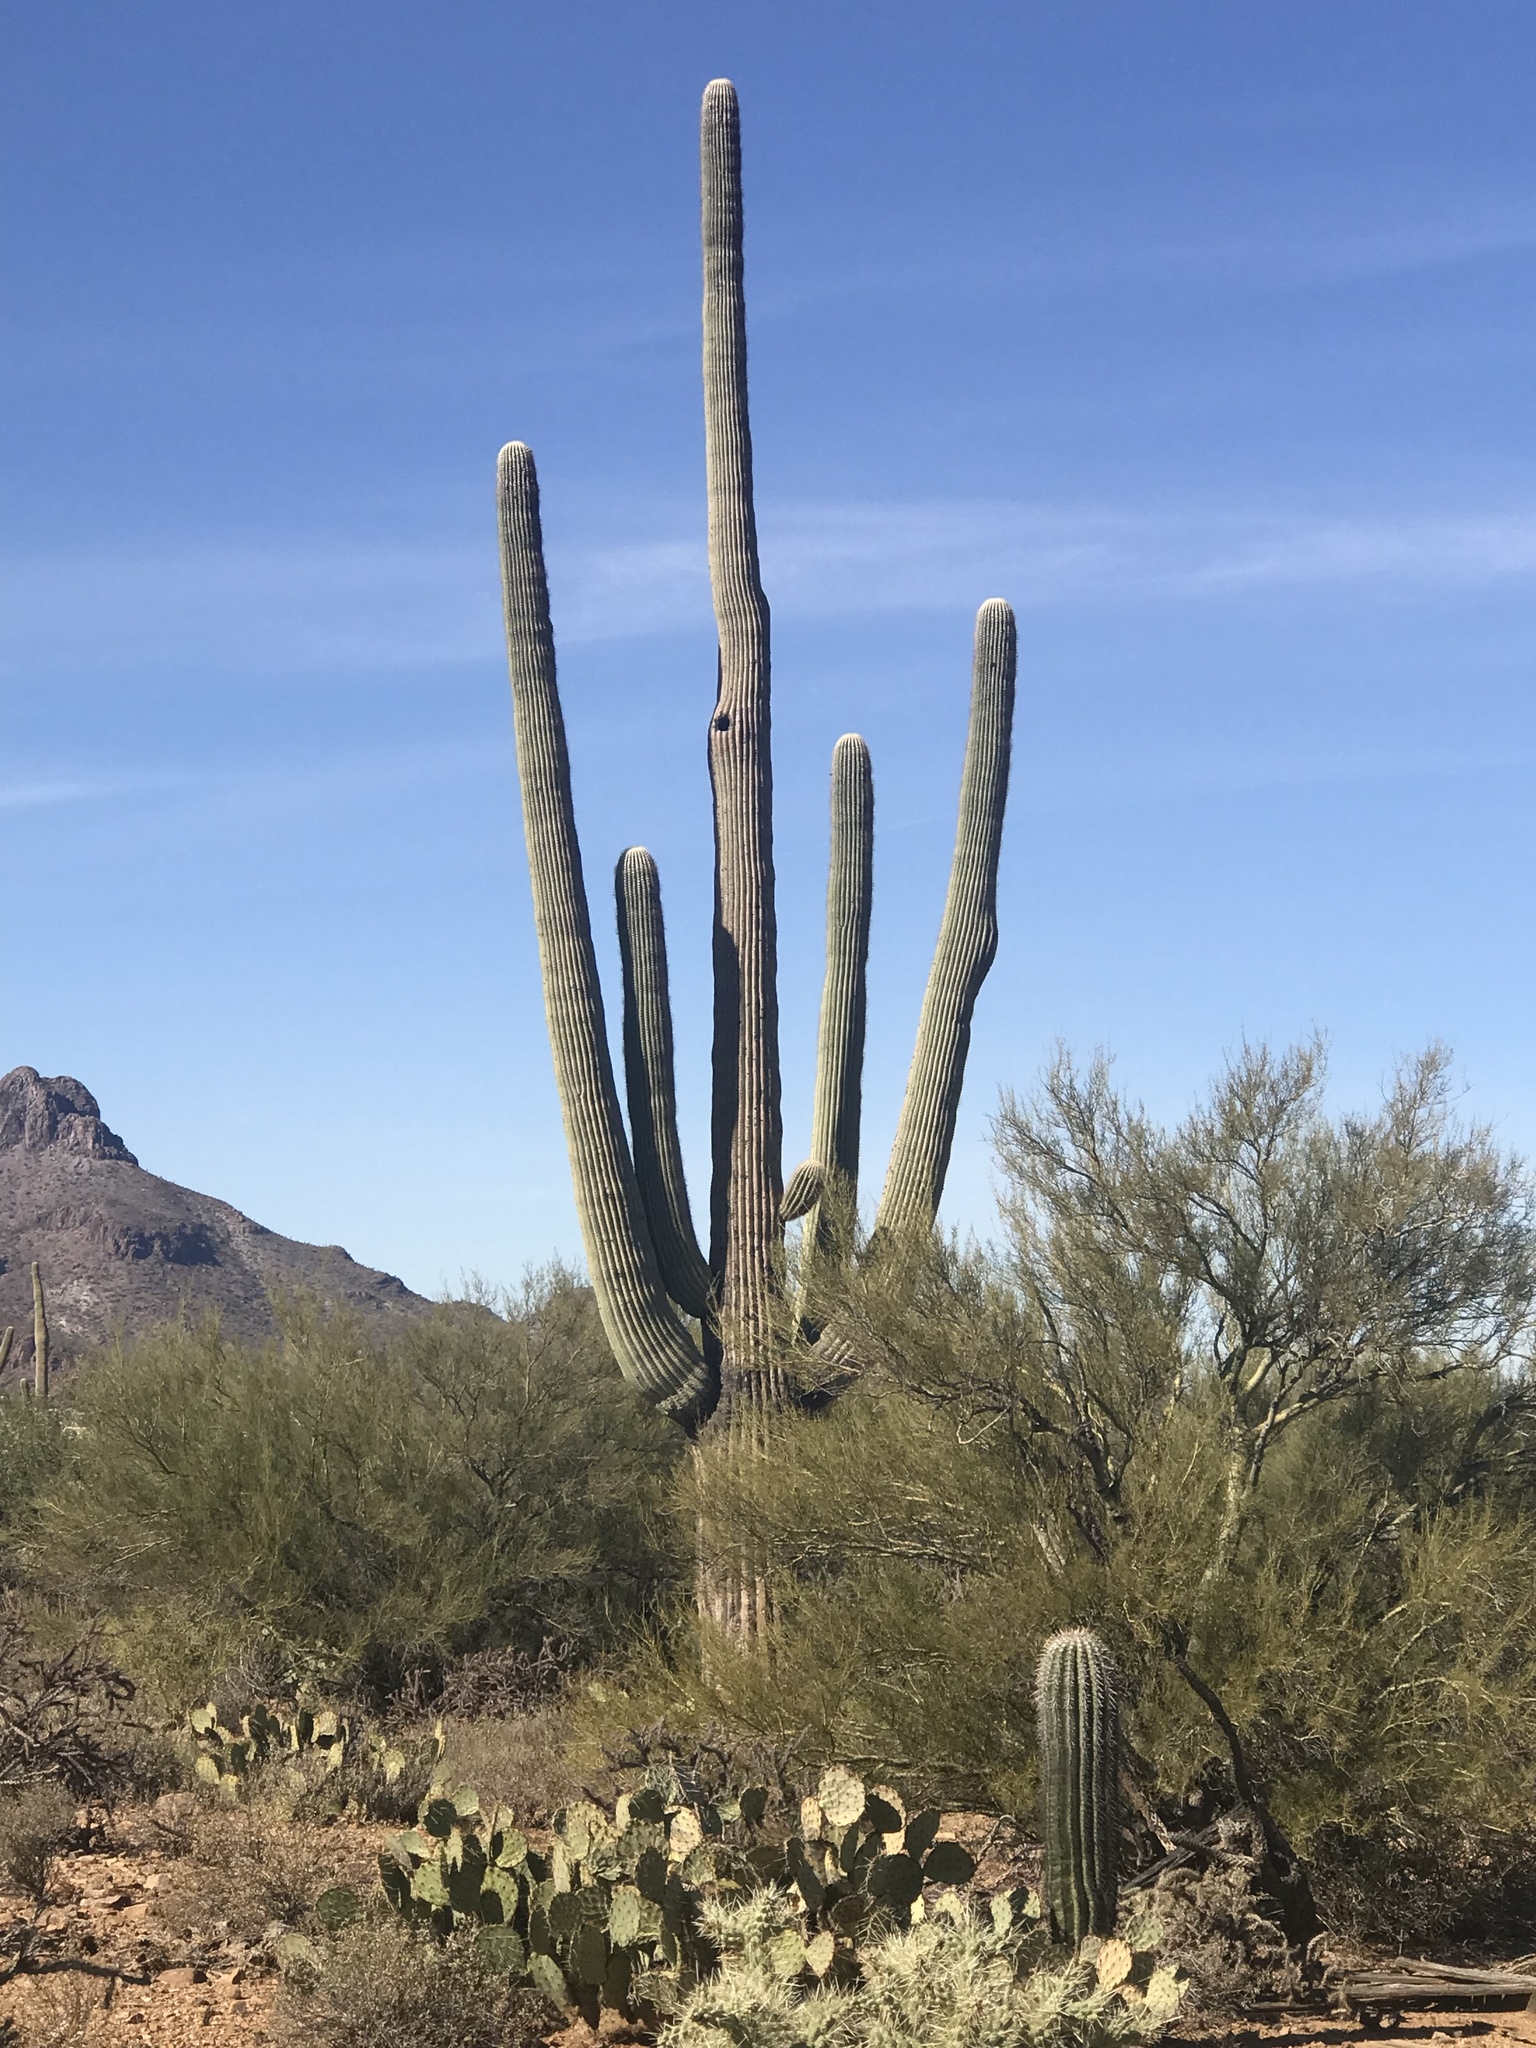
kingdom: Plantae
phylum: Tracheophyta
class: Magnoliopsida
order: Caryophyllales
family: Cactaceae
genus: Carnegiea
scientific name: Carnegiea gigantea
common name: Saguaro
